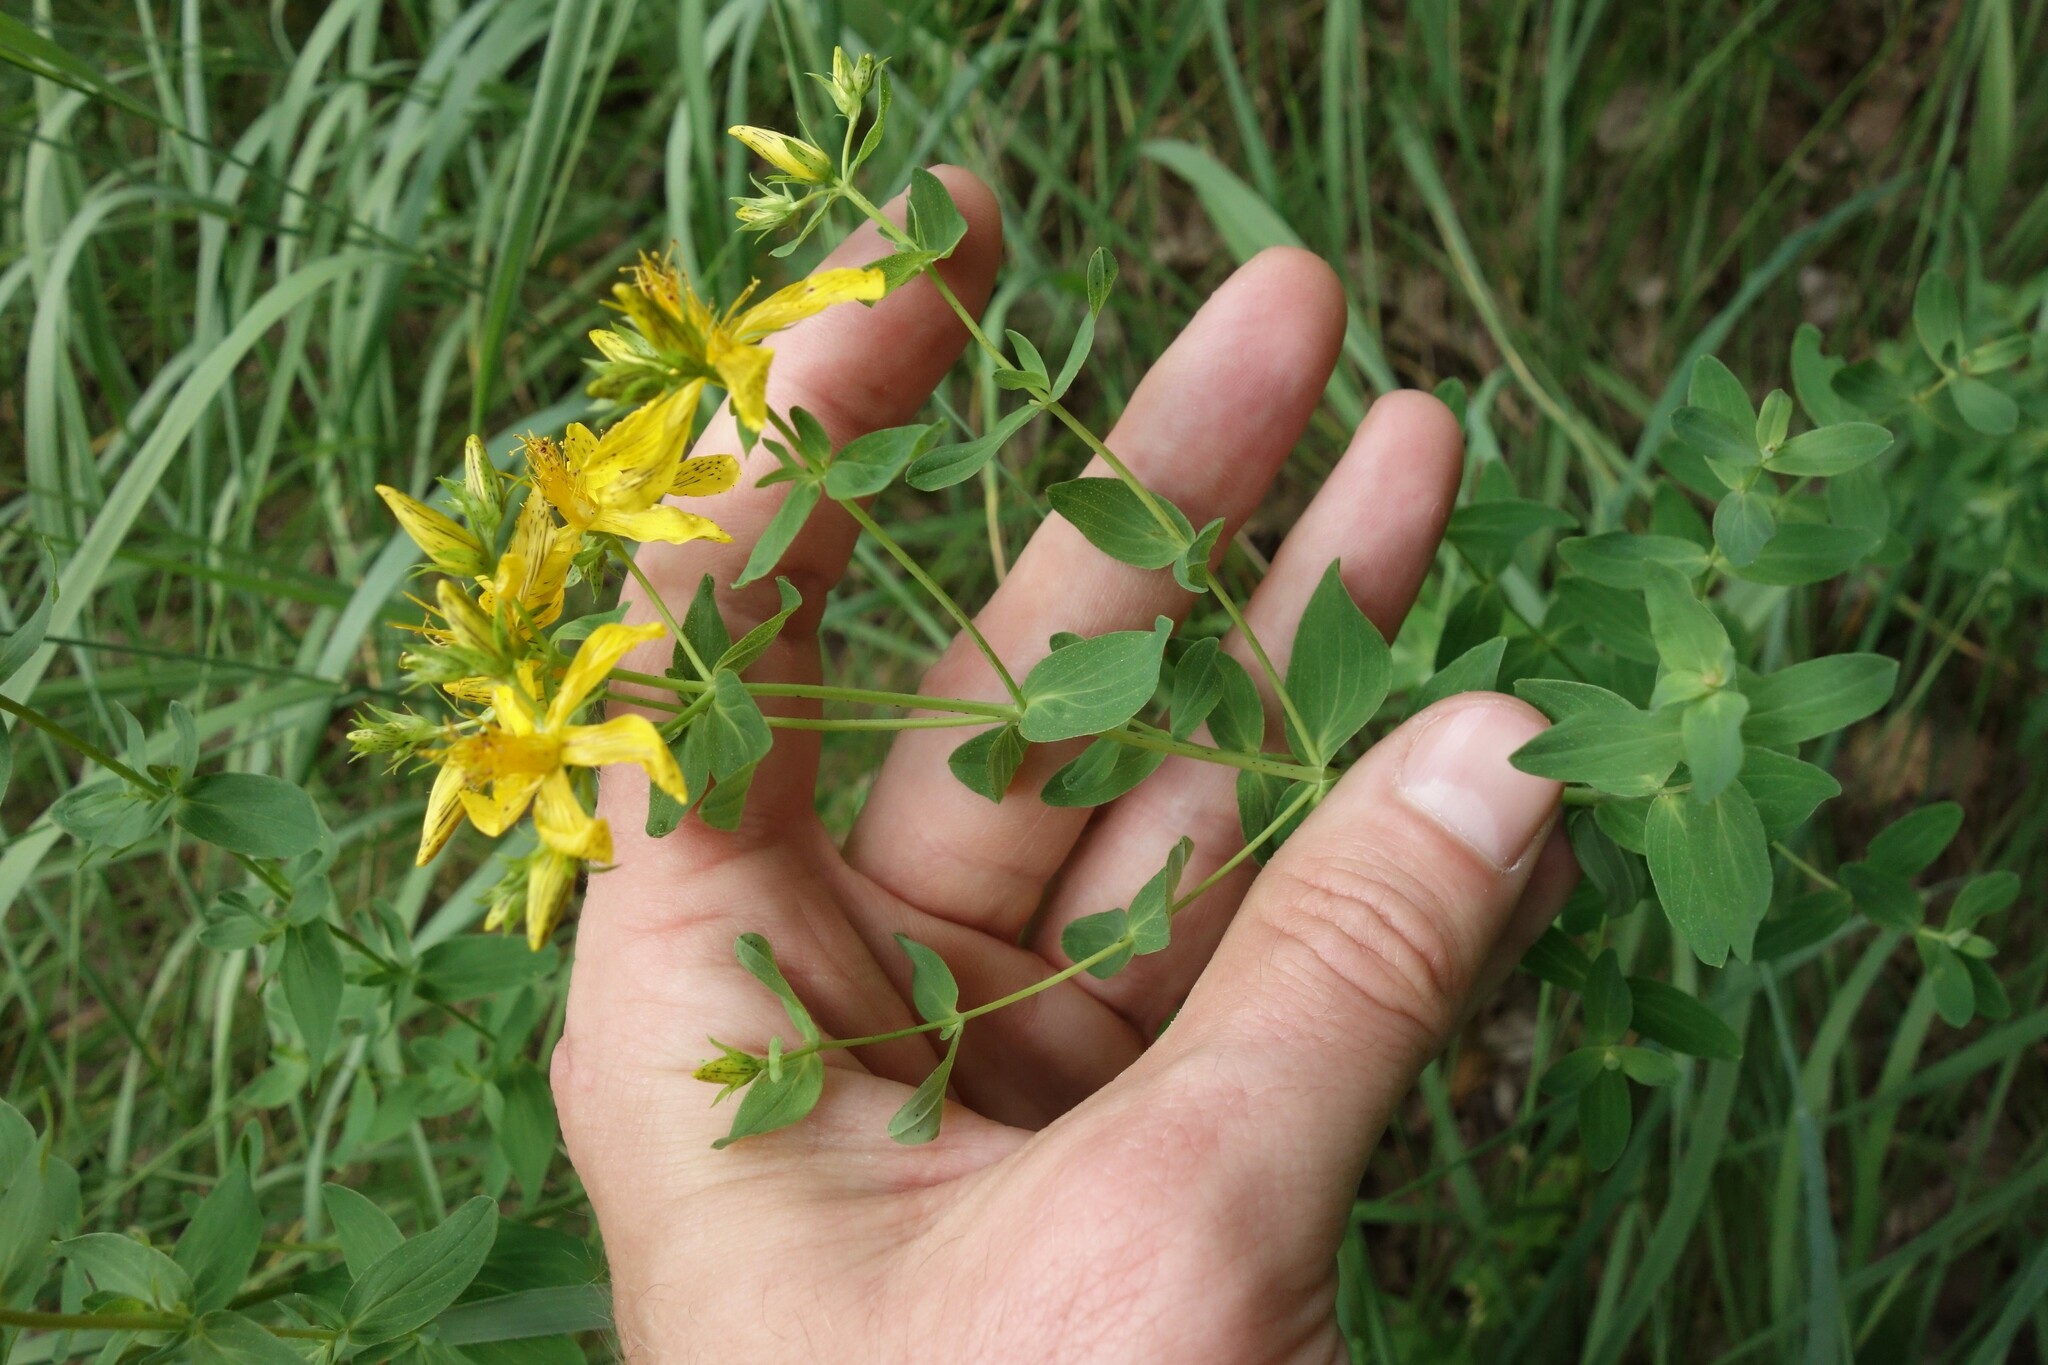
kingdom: Plantae
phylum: Tracheophyta
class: Magnoliopsida
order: Malpighiales
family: Hypericaceae
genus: Hypericum
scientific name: Hypericum perforatum
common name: Common st. johnswort
